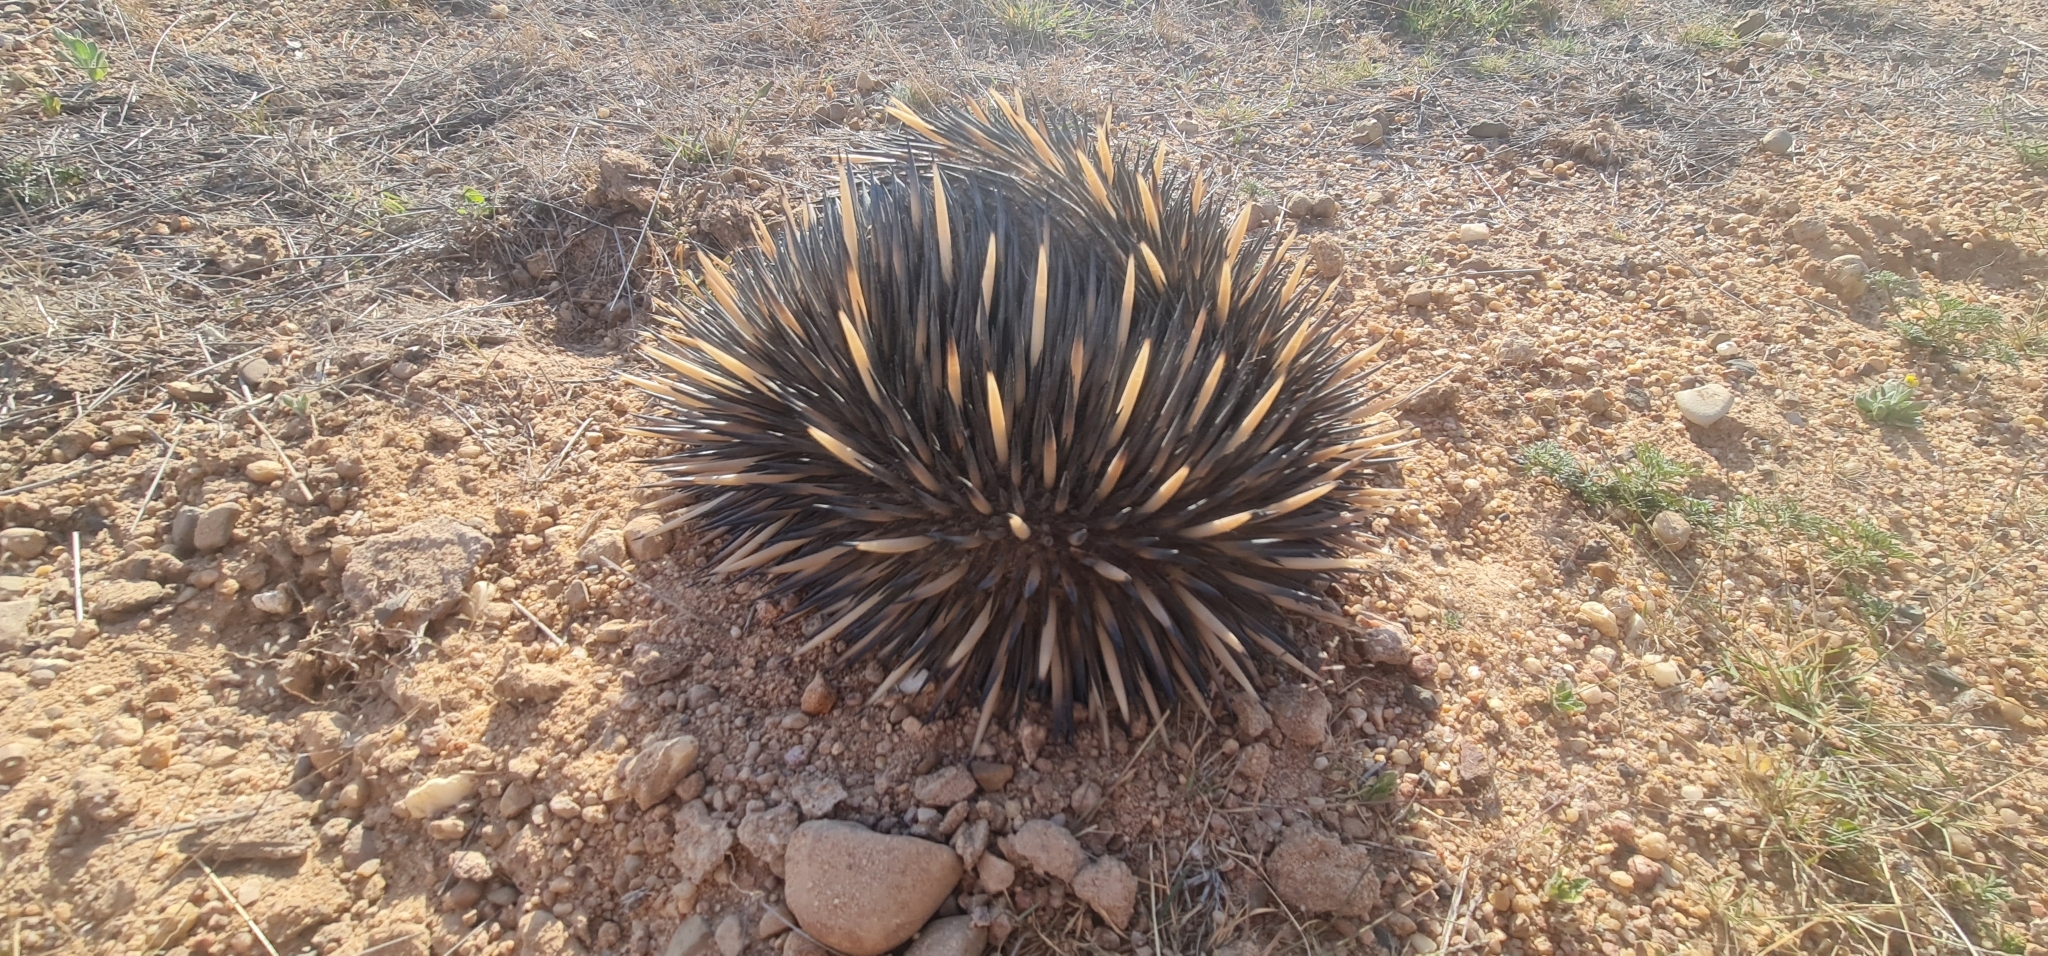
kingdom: Animalia
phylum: Chordata
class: Mammalia
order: Monotremata
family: Tachyglossidae
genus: Tachyglossus
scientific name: Tachyglossus aculeatus
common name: Short-beaked echidna
